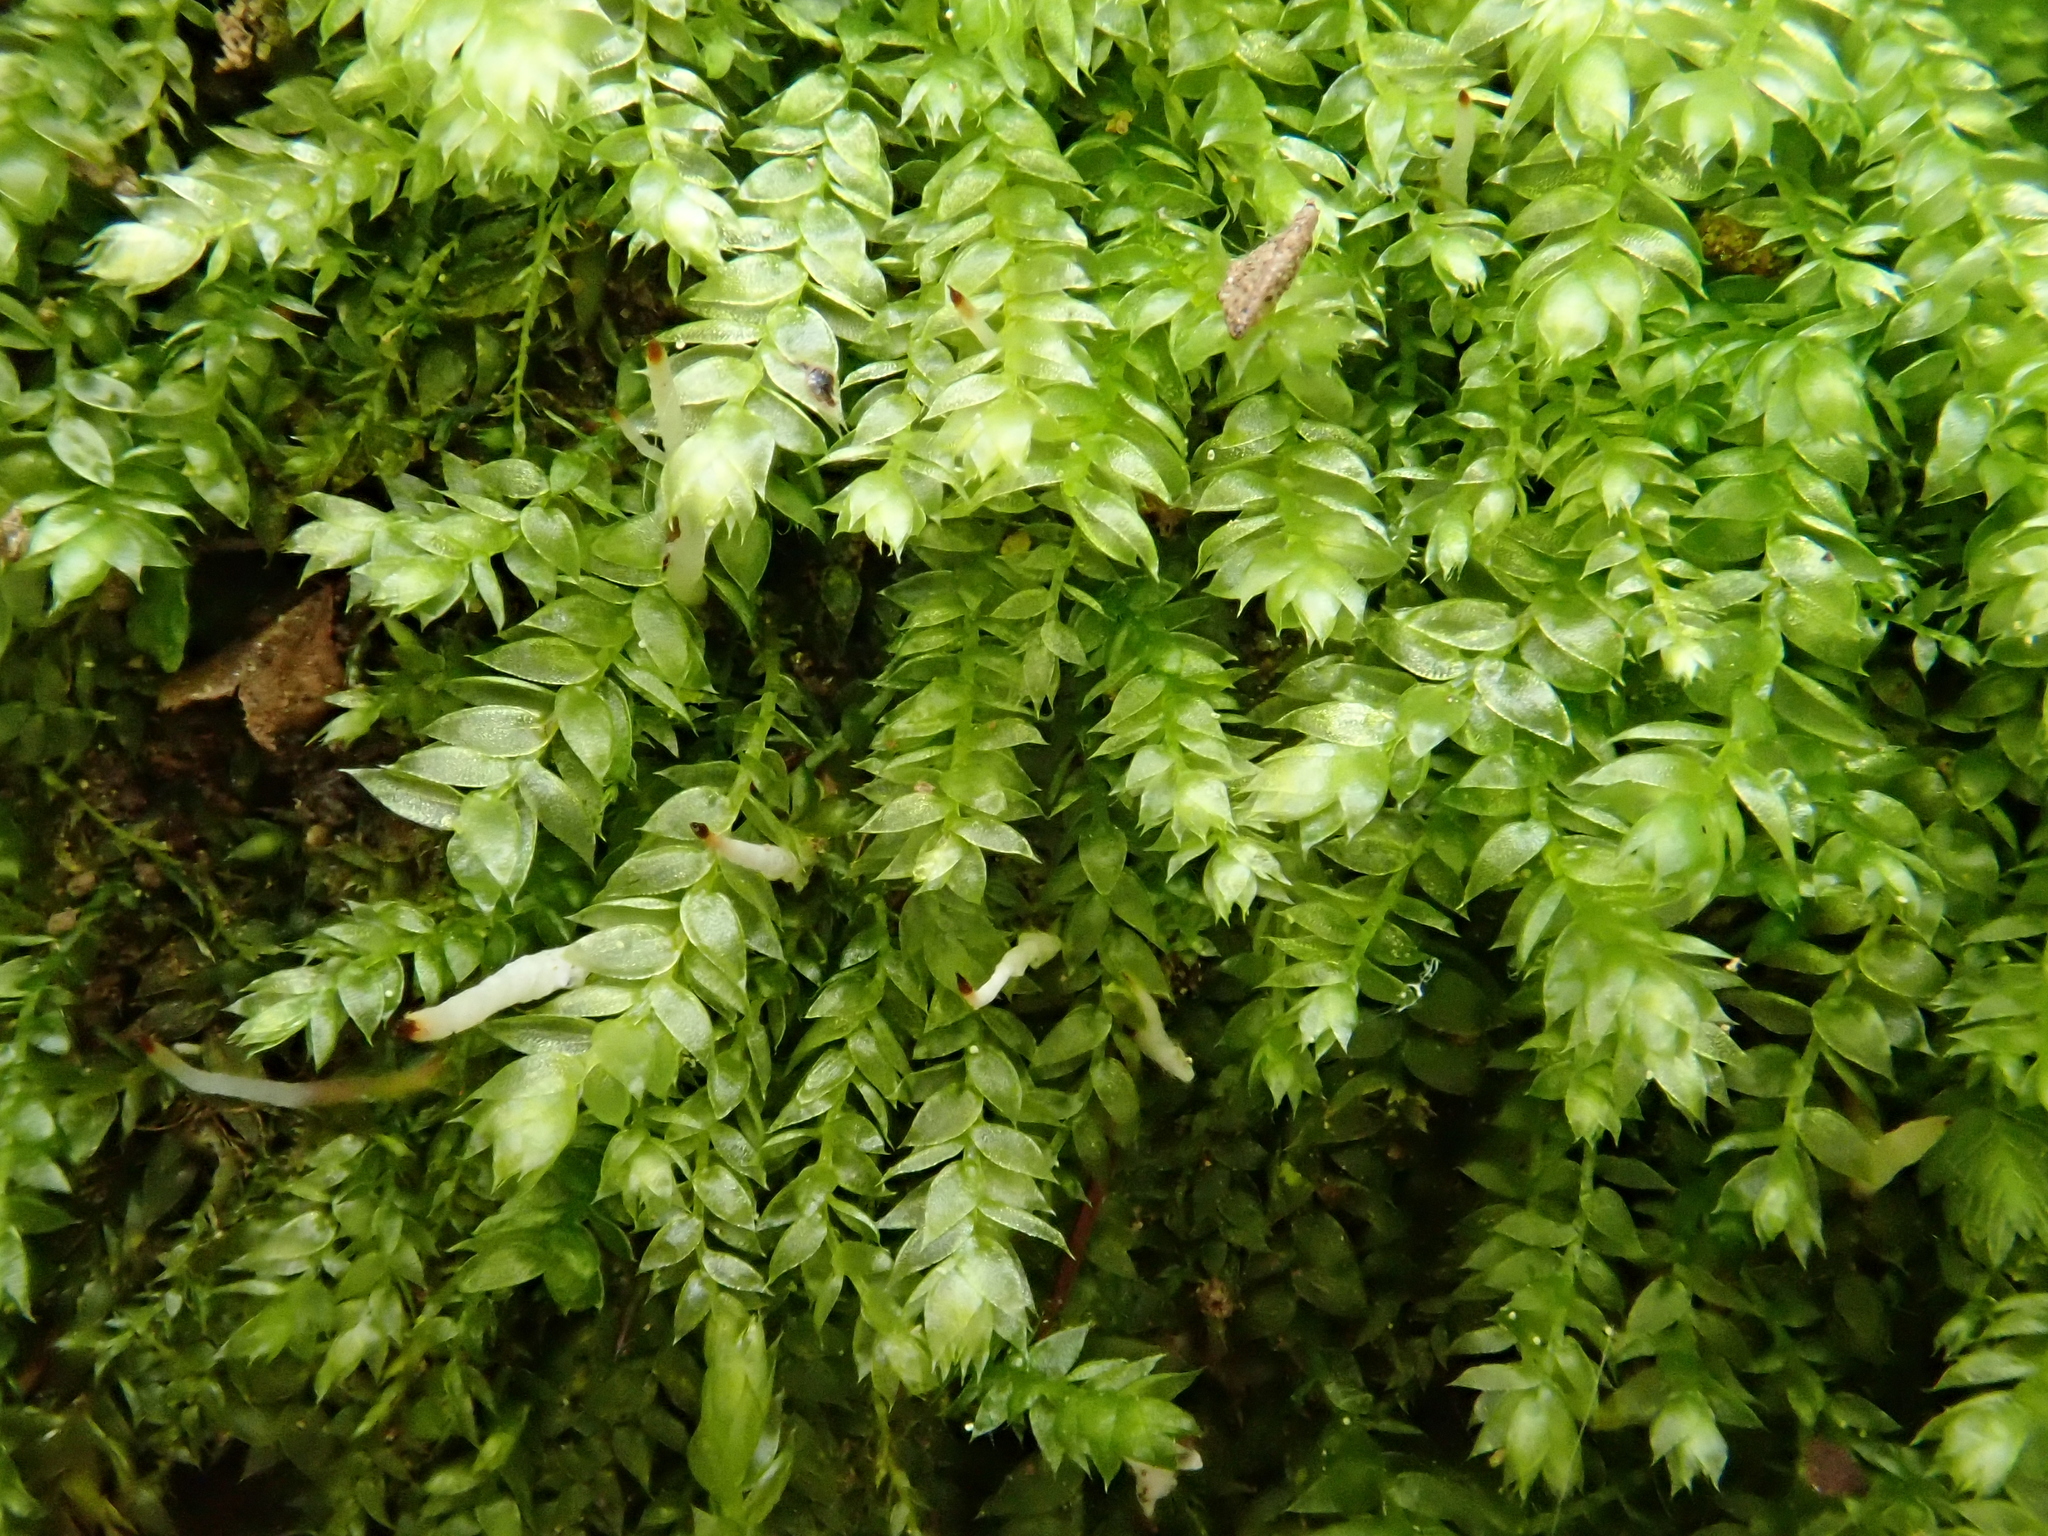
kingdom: Plantae
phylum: Bryophyta
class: Bryopsida
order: Hypnales
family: Plagiotheciaceae
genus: Plagiothecium
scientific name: Plagiothecium nemorale
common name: Woodsy silk-moss
